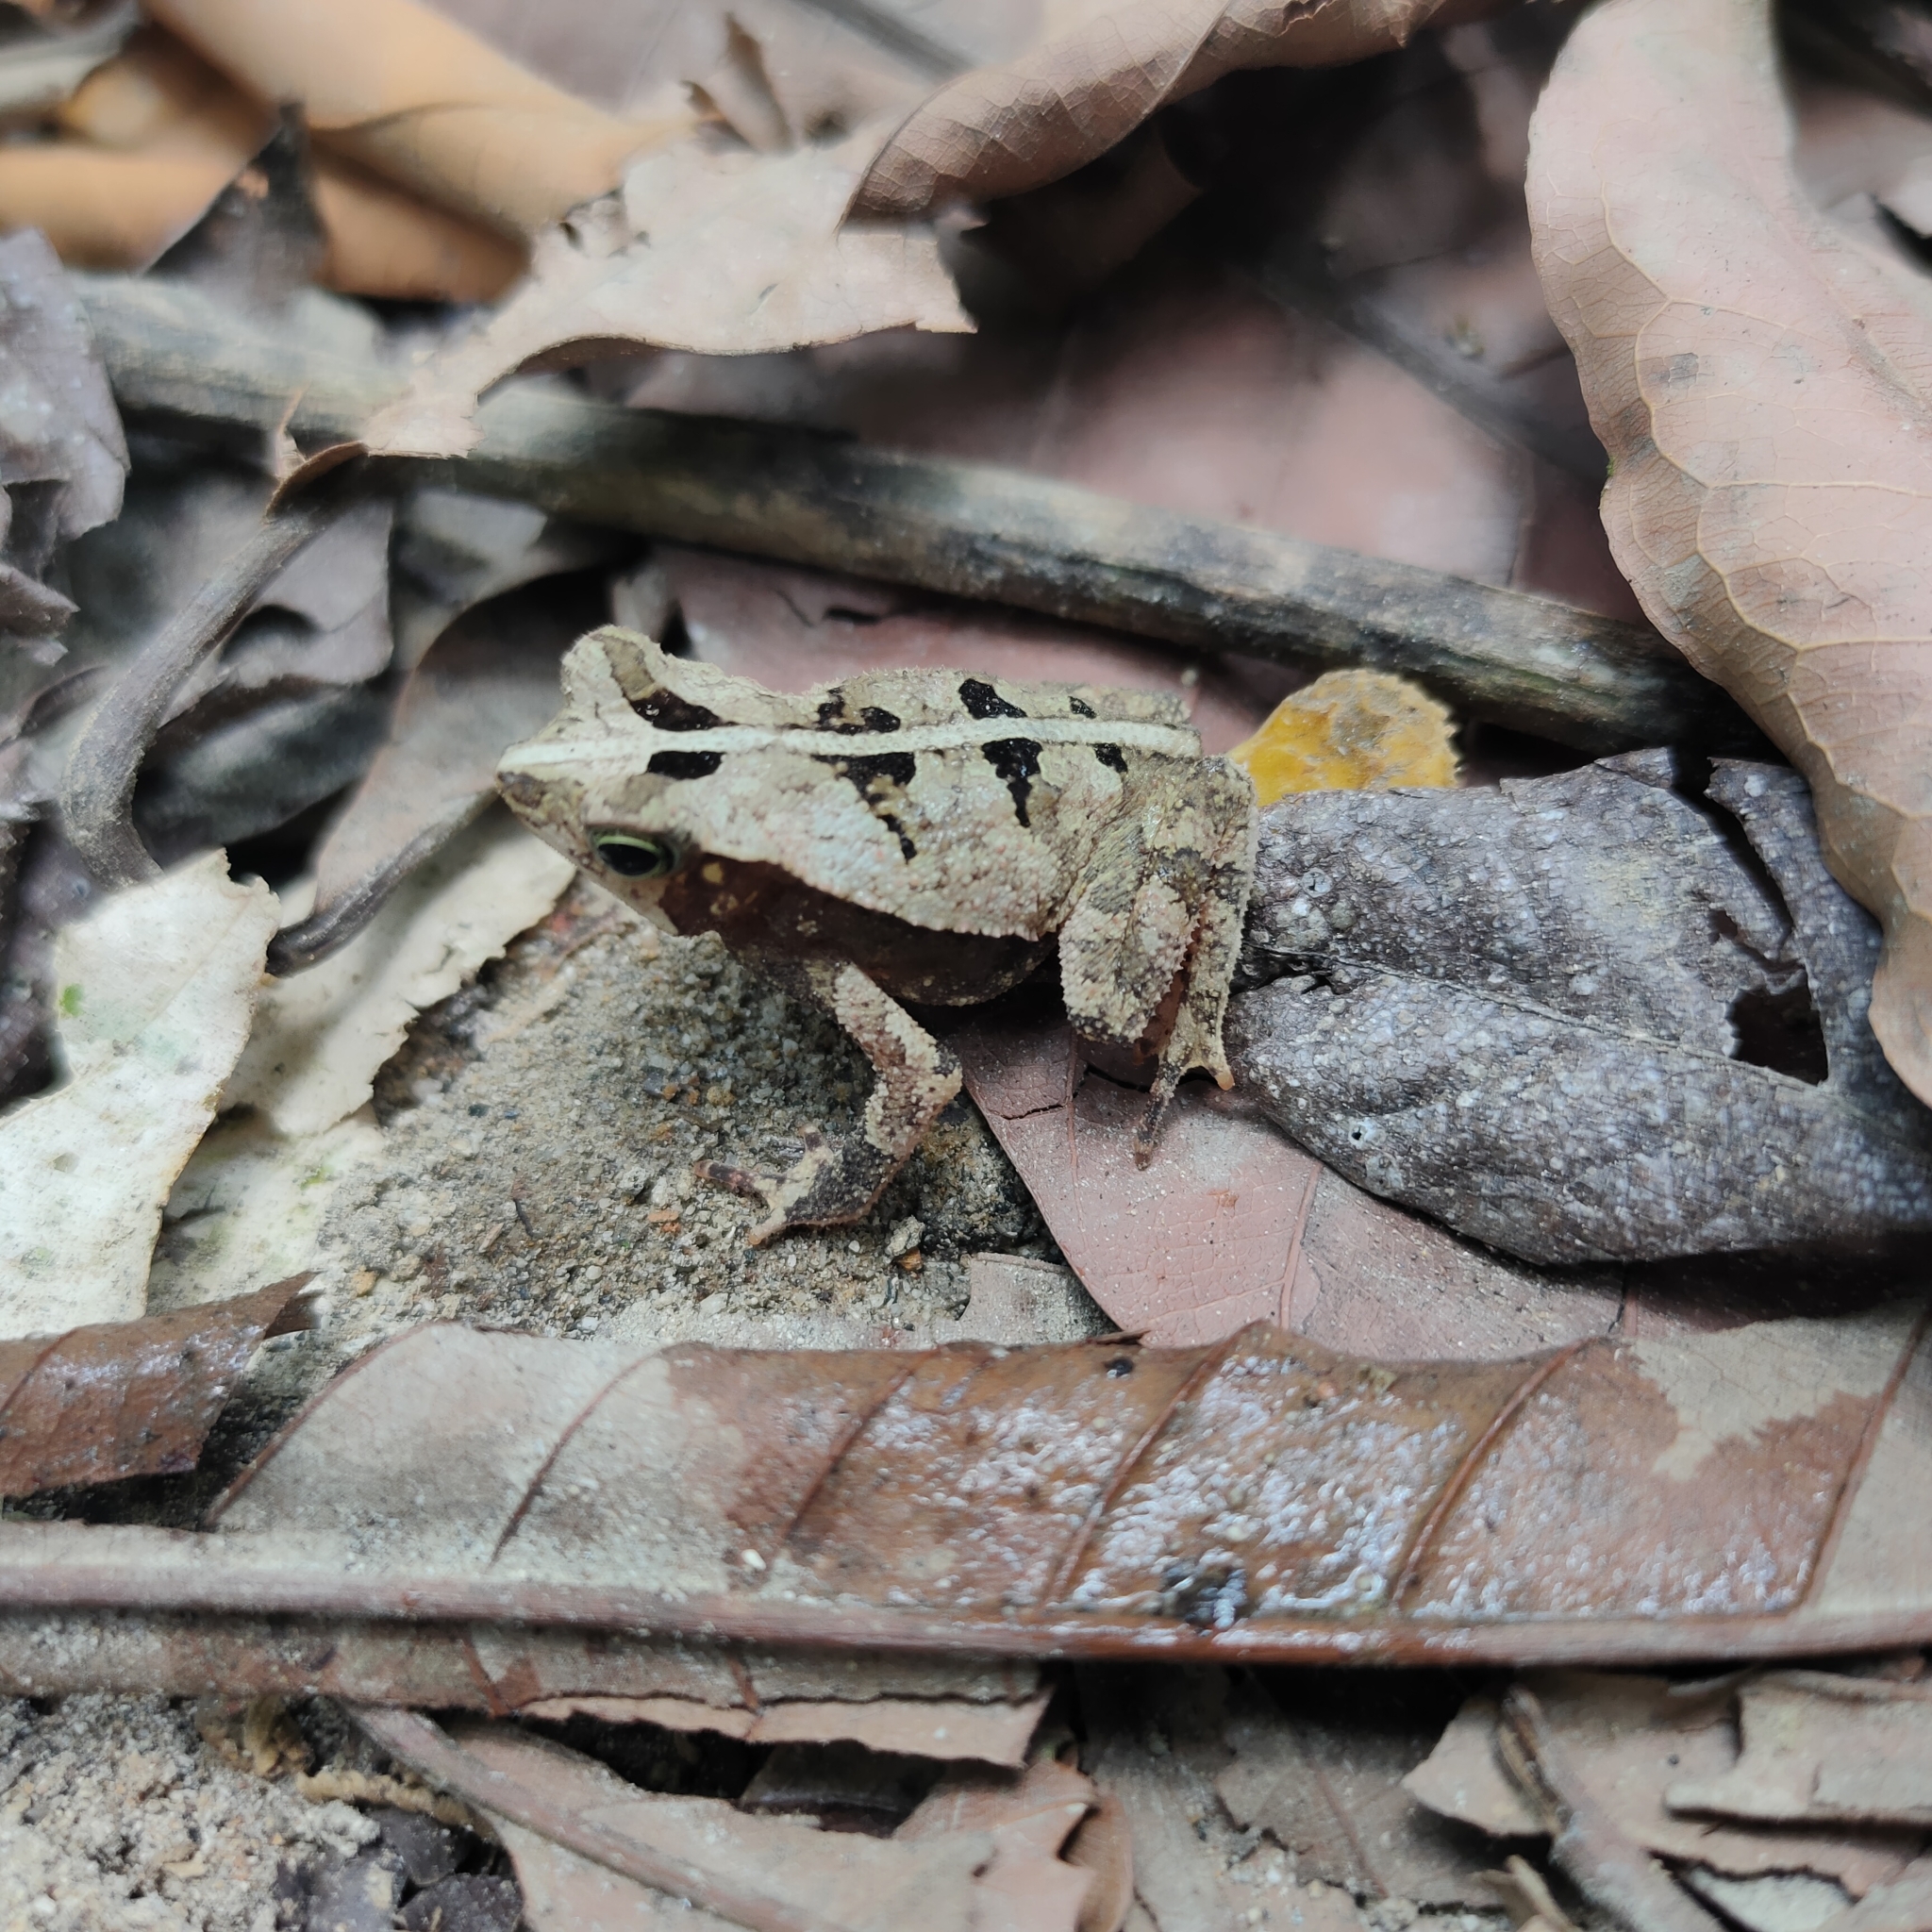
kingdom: Animalia
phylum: Chordata
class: Amphibia
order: Anura
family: Bufonidae
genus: Rhinella
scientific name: Rhinella alata
